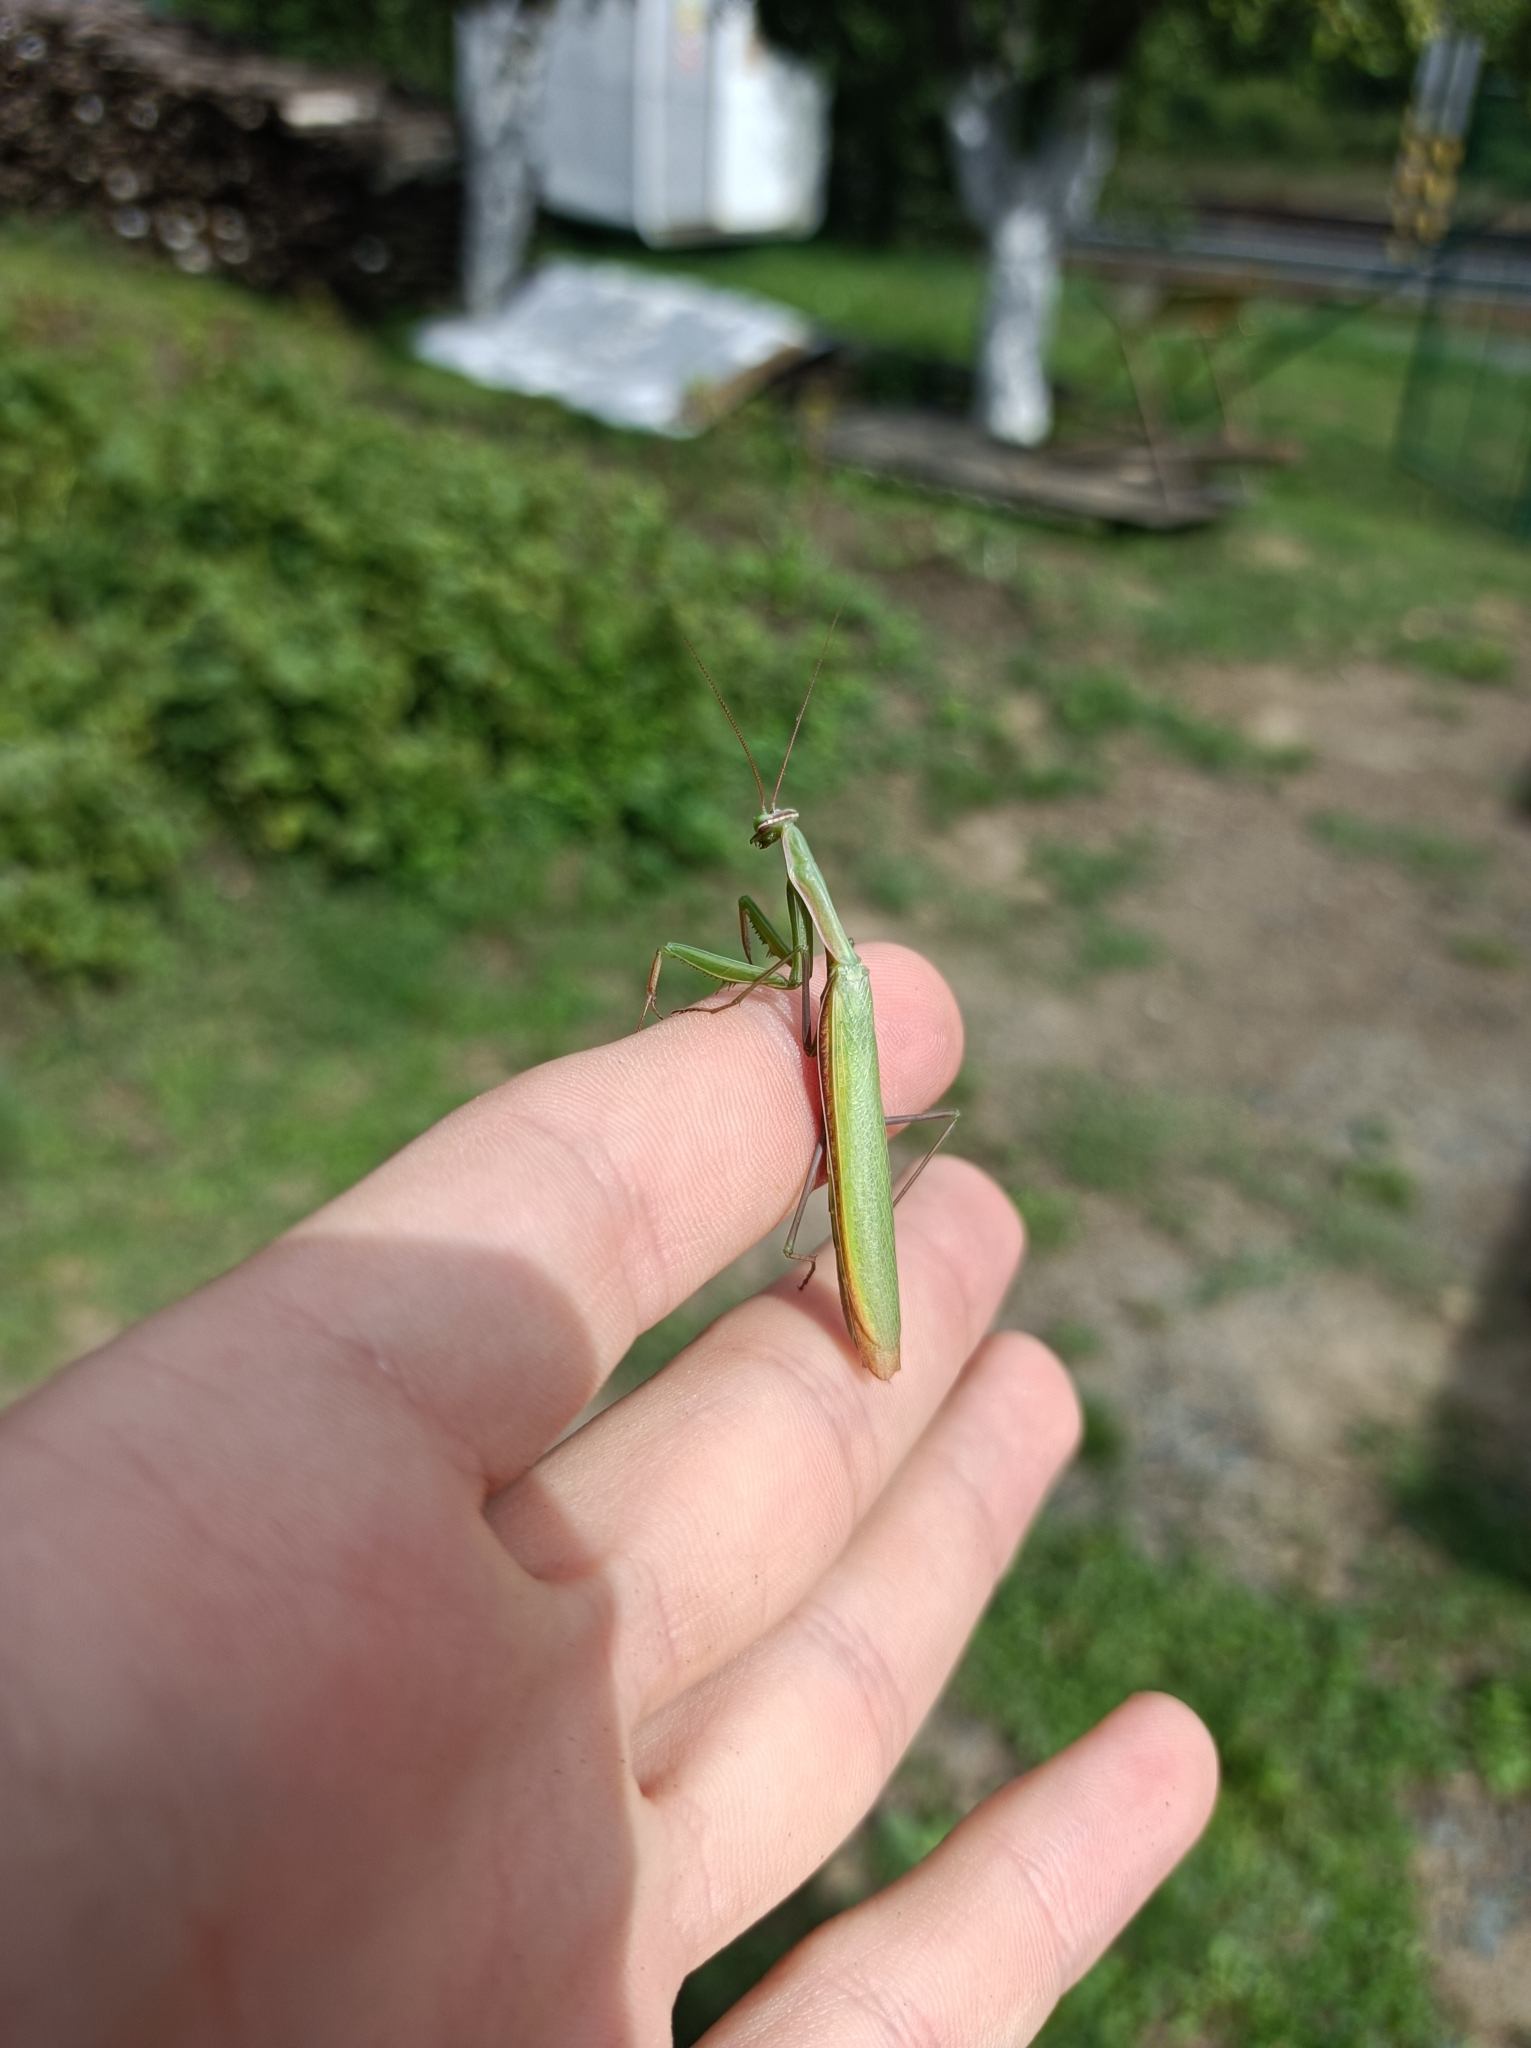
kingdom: Animalia
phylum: Arthropoda
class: Insecta
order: Mantodea
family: Mantidae
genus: Mantis
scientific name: Mantis religiosa
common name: Praying mantis
